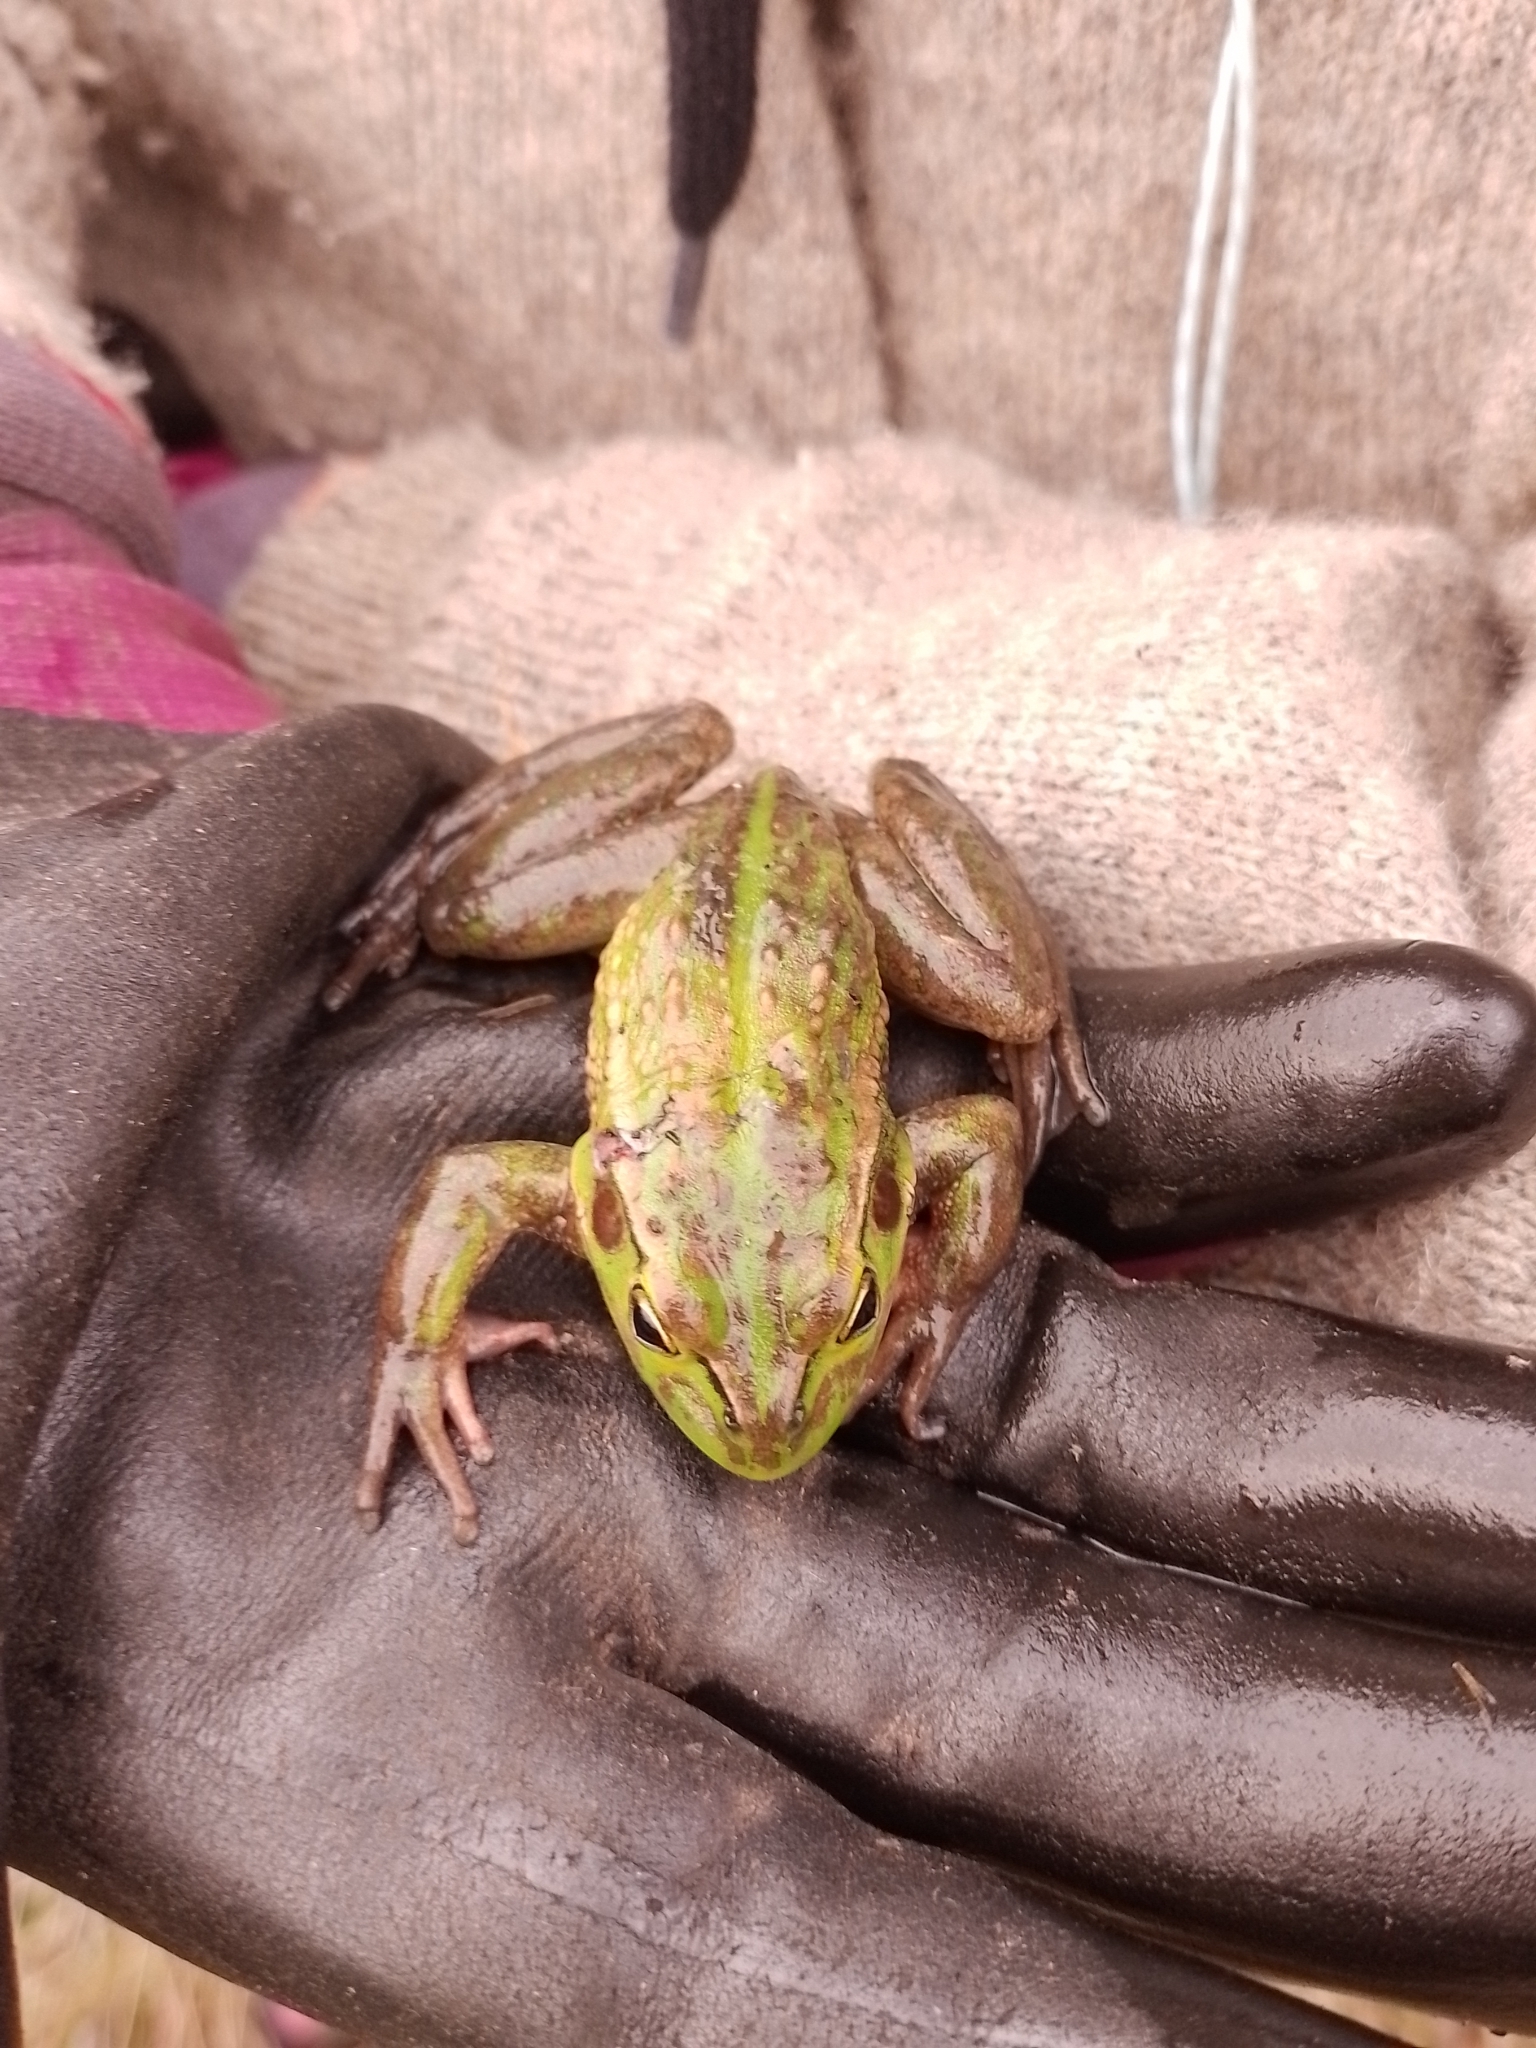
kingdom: Animalia
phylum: Chordata
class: Amphibia
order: Anura
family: Pelodryadidae
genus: Ranoidea
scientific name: Ranoidea raniformis
